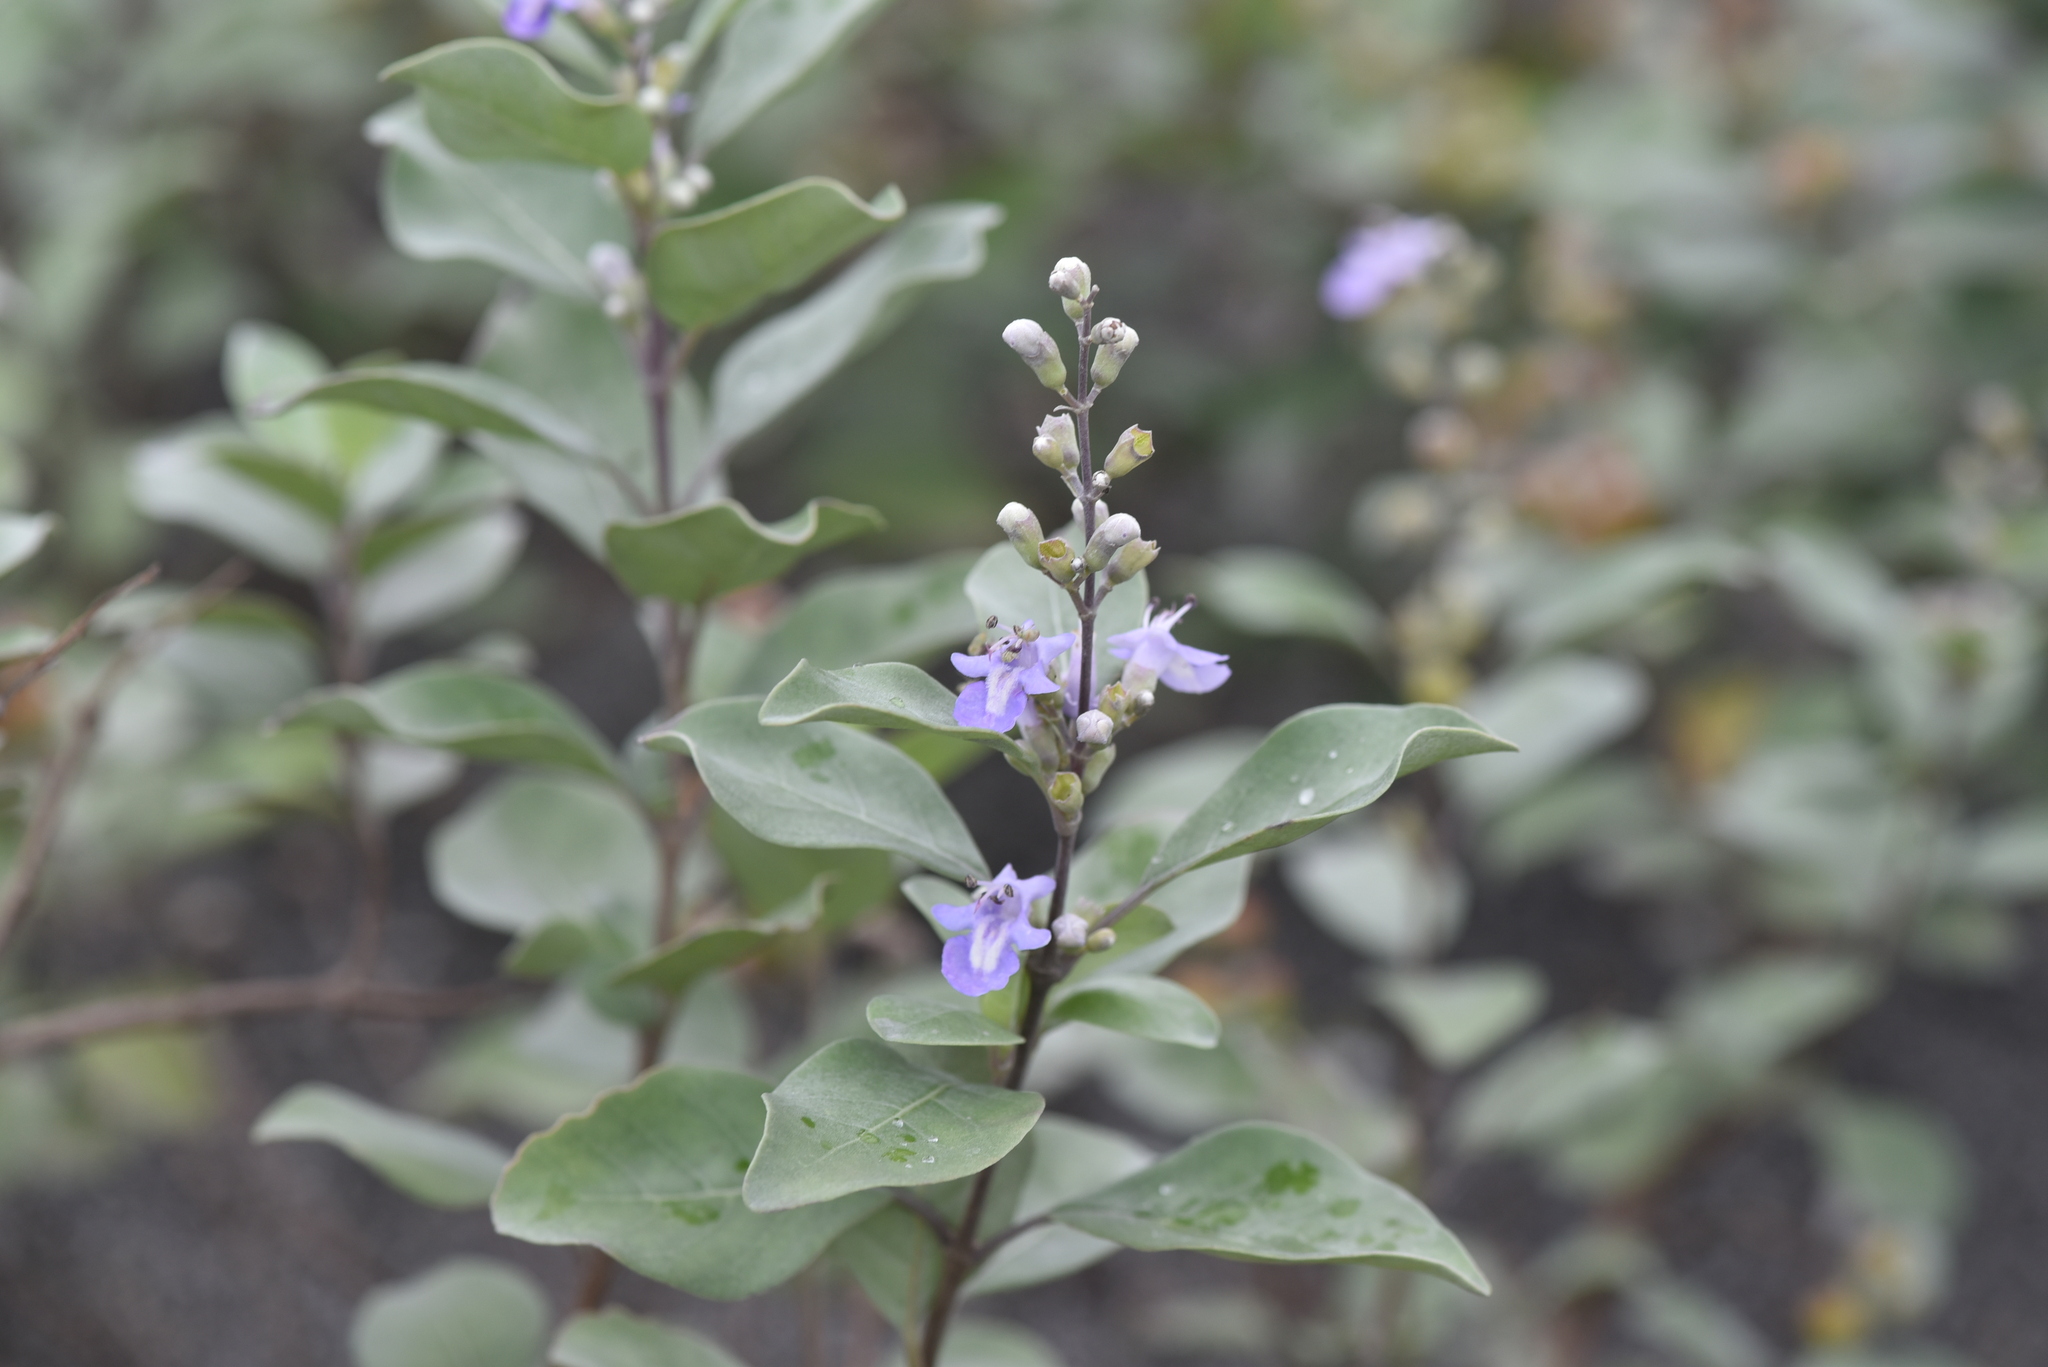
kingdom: Plantae
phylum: Tracheophyta
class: Magnoliopsida
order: Lamiales
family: Lamiaceae
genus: Vitex
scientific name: Vitex rotundifolia
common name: Beach vitex
